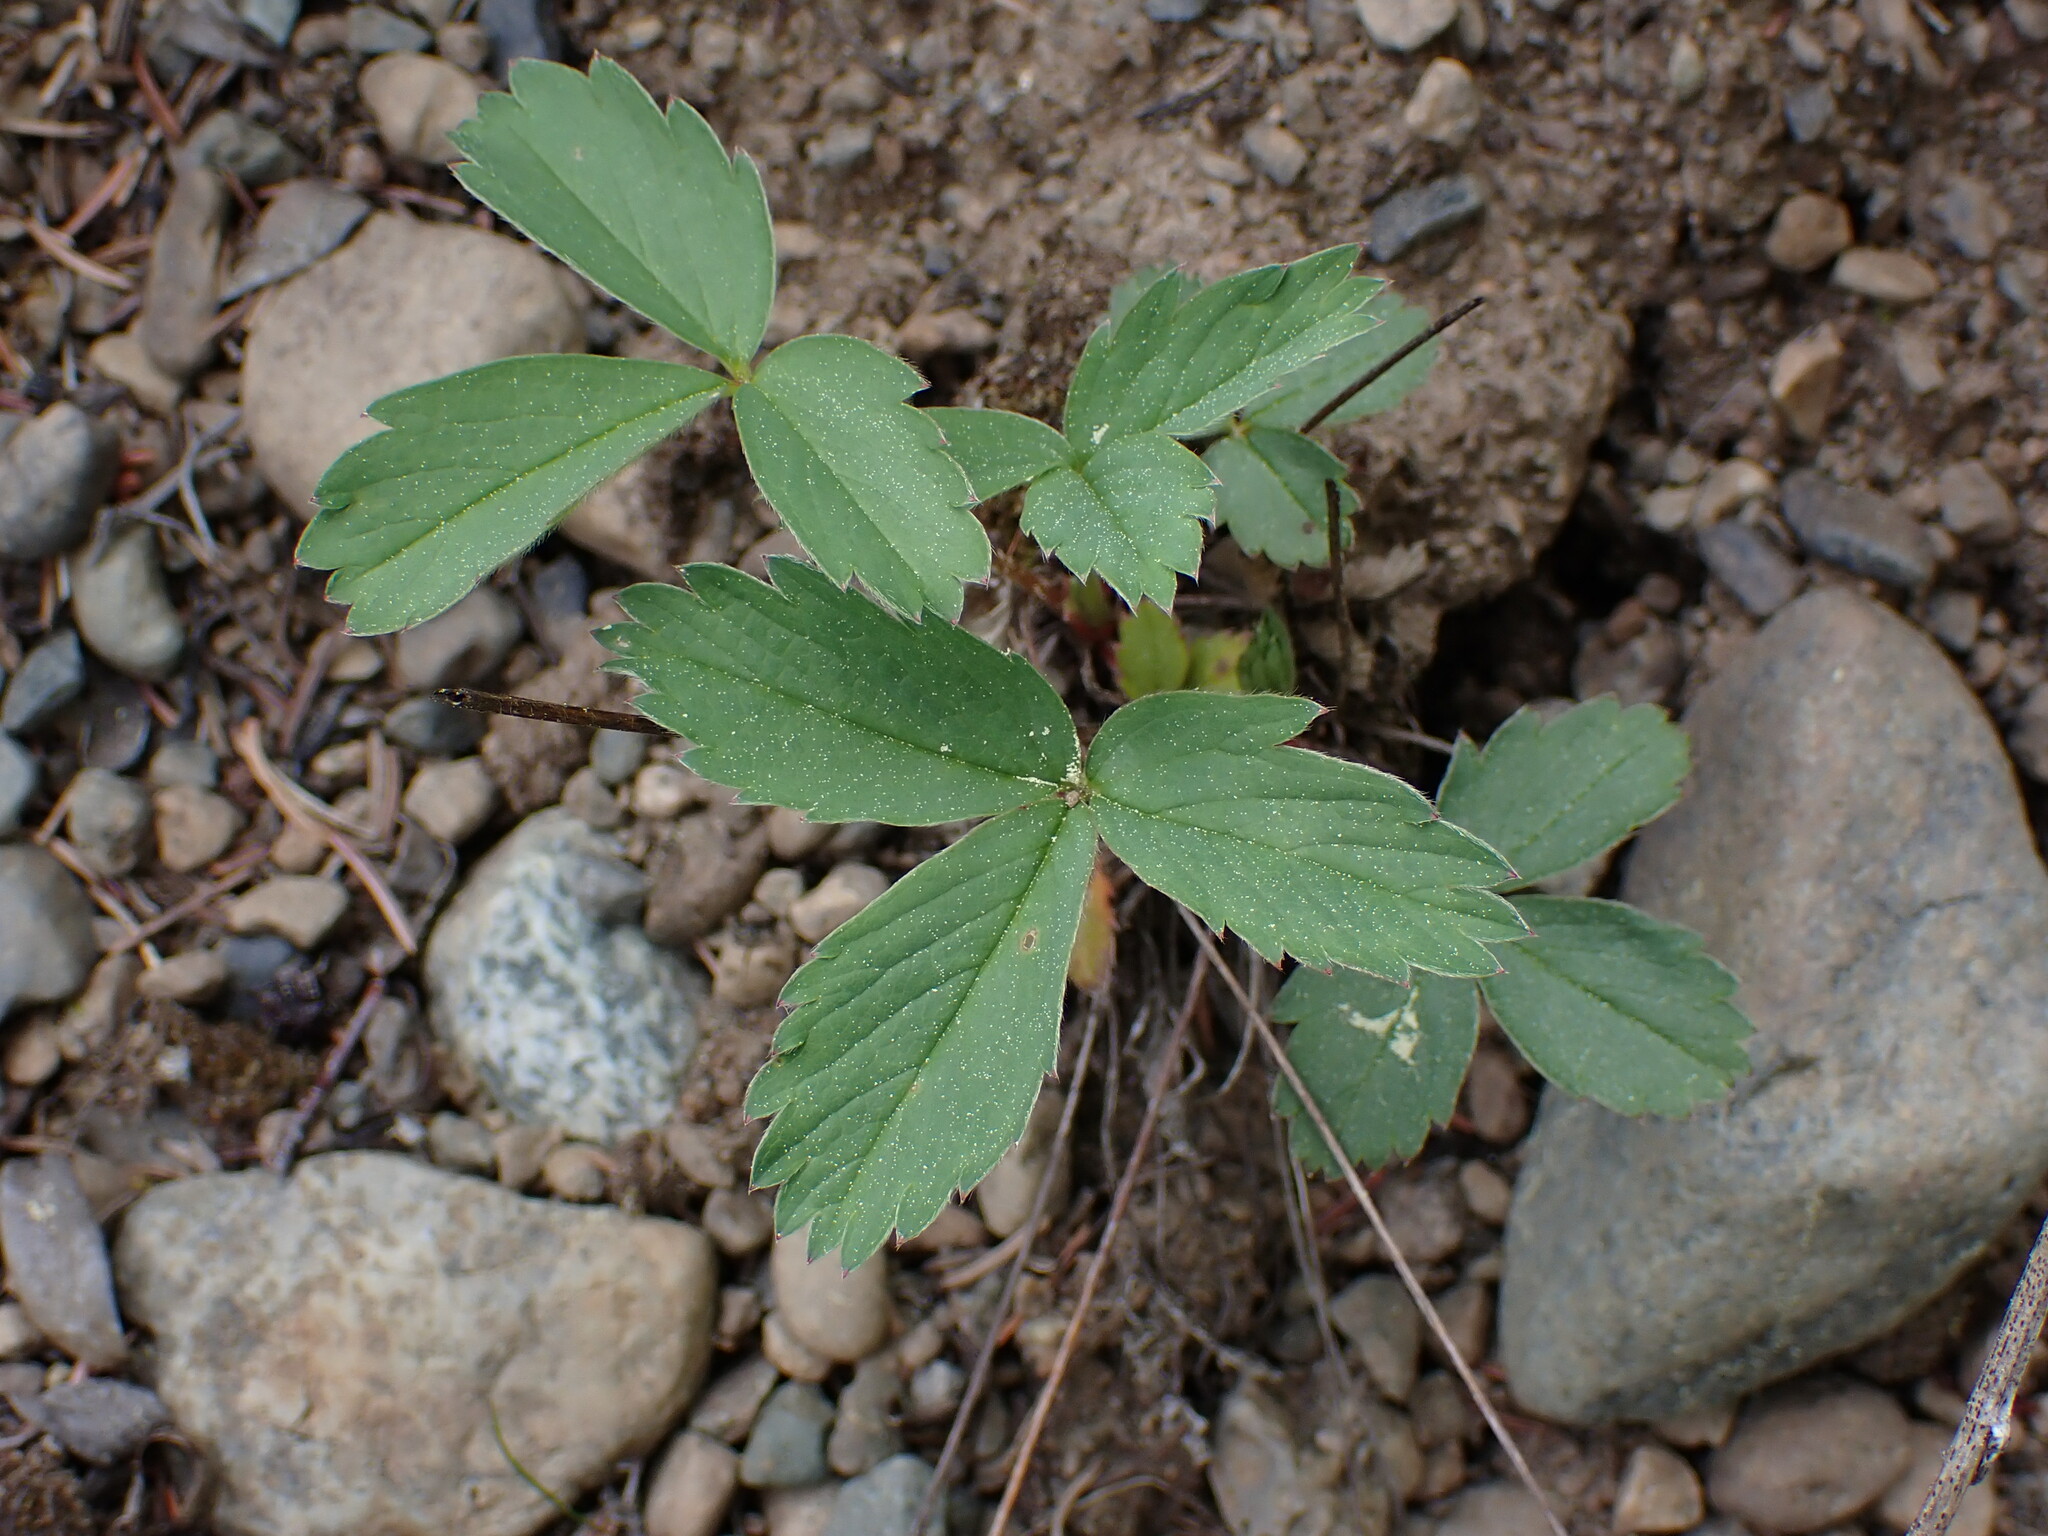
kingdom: Plantae
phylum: Tracheophyta
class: Magnoliopsida
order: Rosales
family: Rosaceae
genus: Fragaria
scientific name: Fragaria virginiana
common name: Thickleaved wild strawberry
